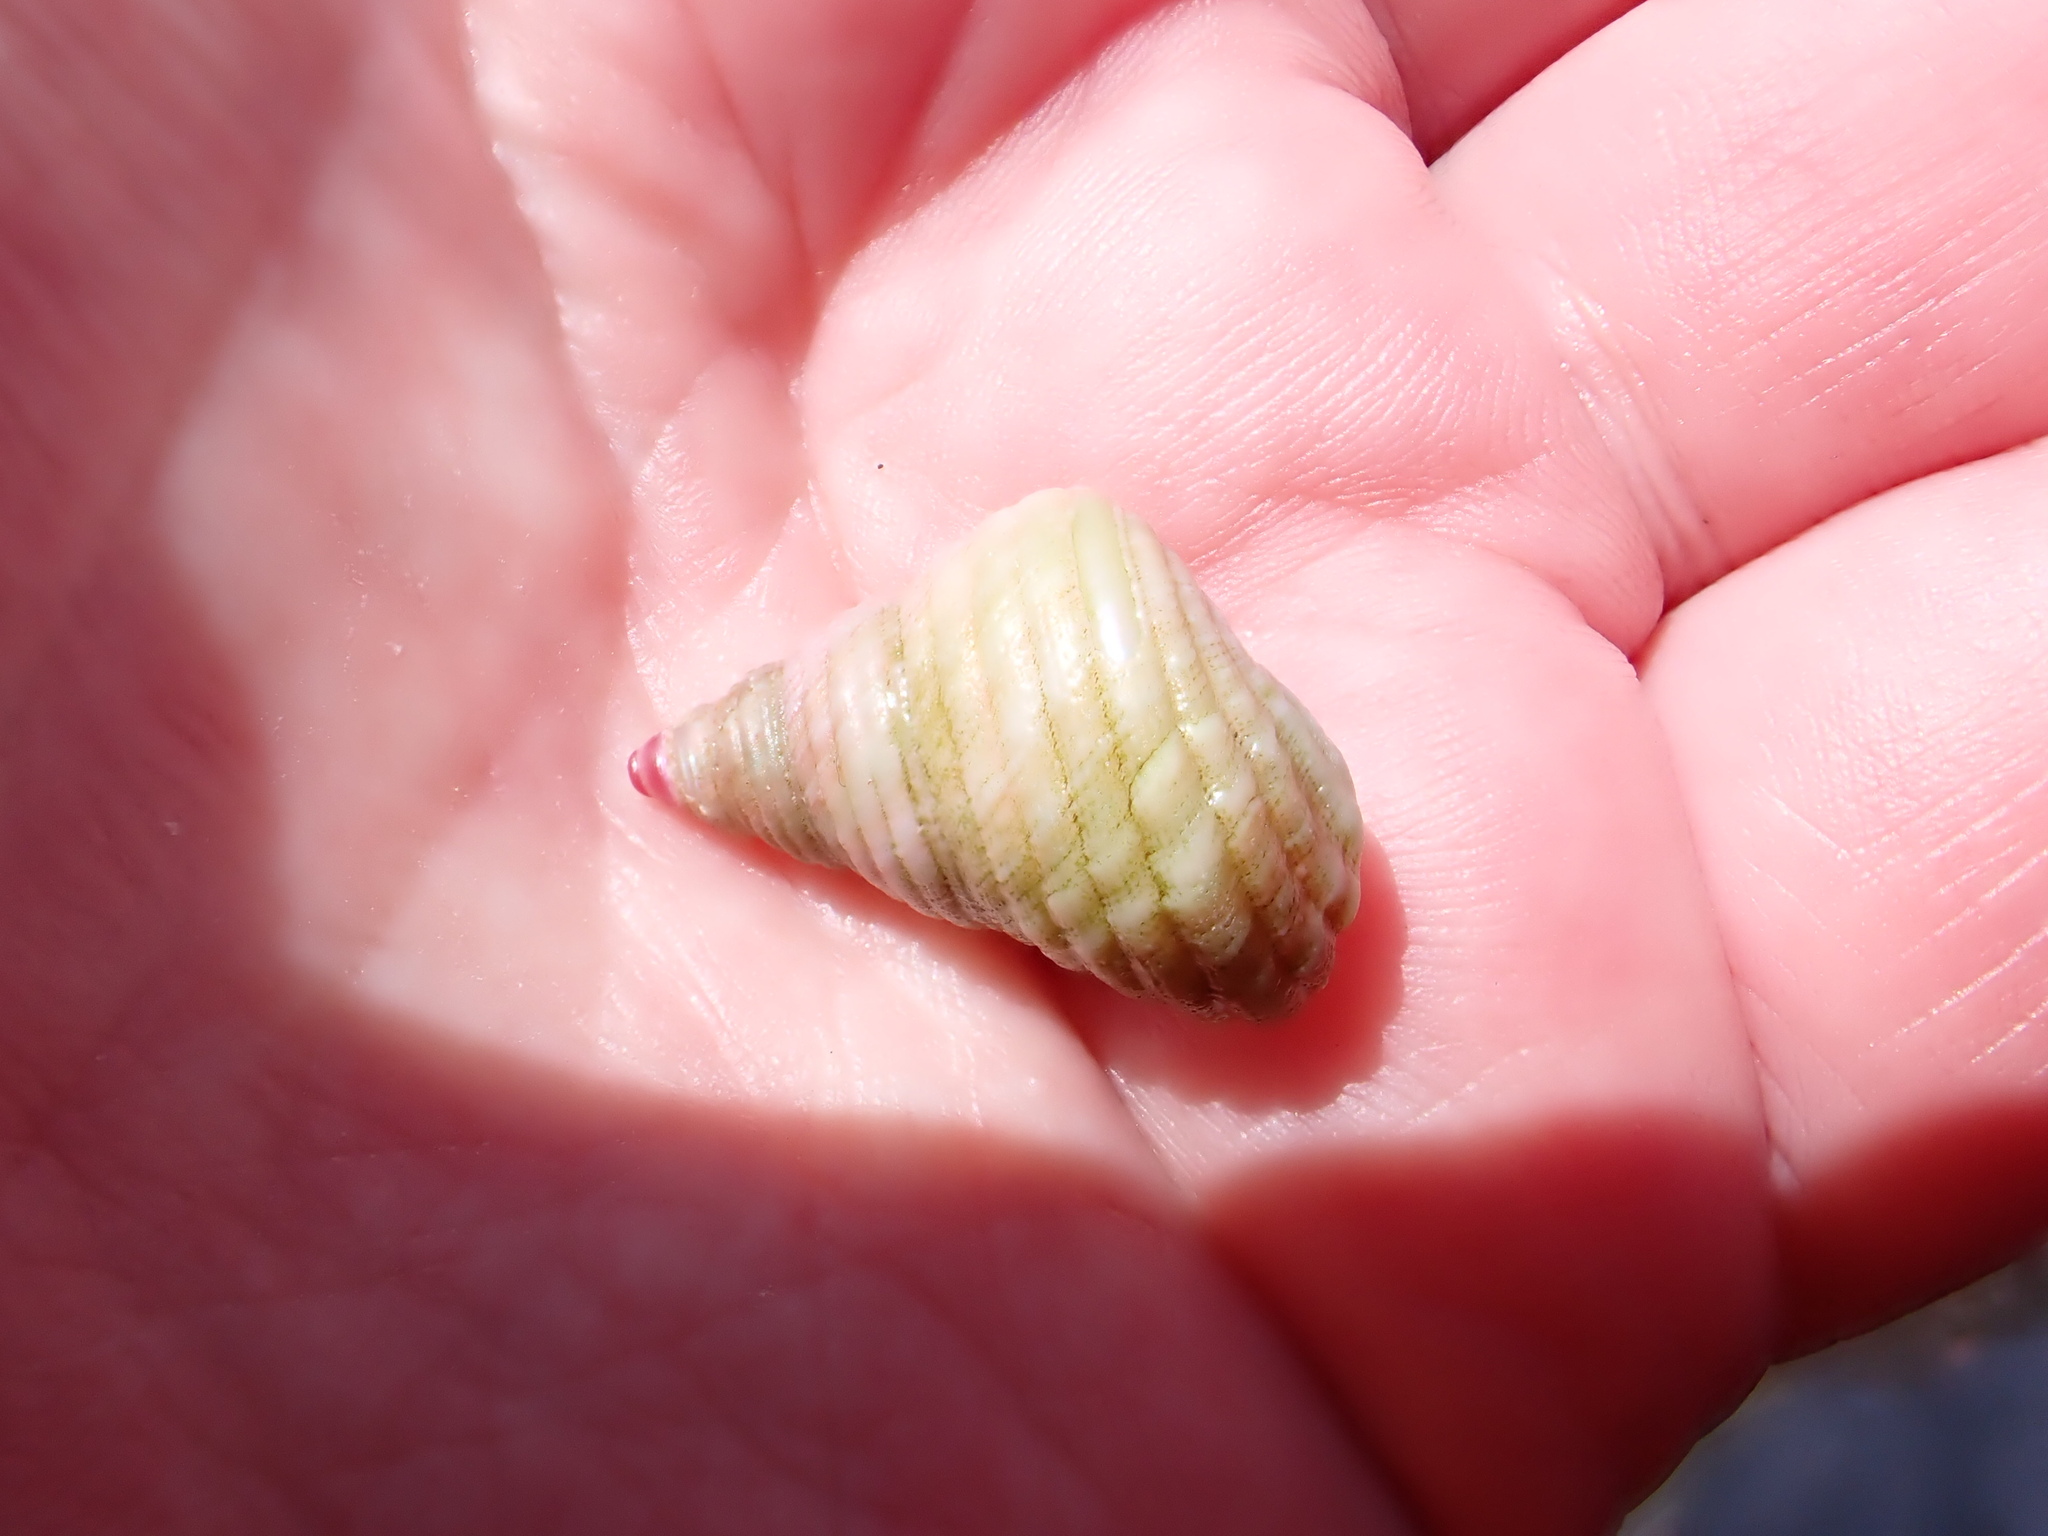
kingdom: Animalia
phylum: Mollusca
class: Gastropoda
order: Trochida
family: Trochidae
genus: Micrelenchus
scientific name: Micrelenchus purpureus
